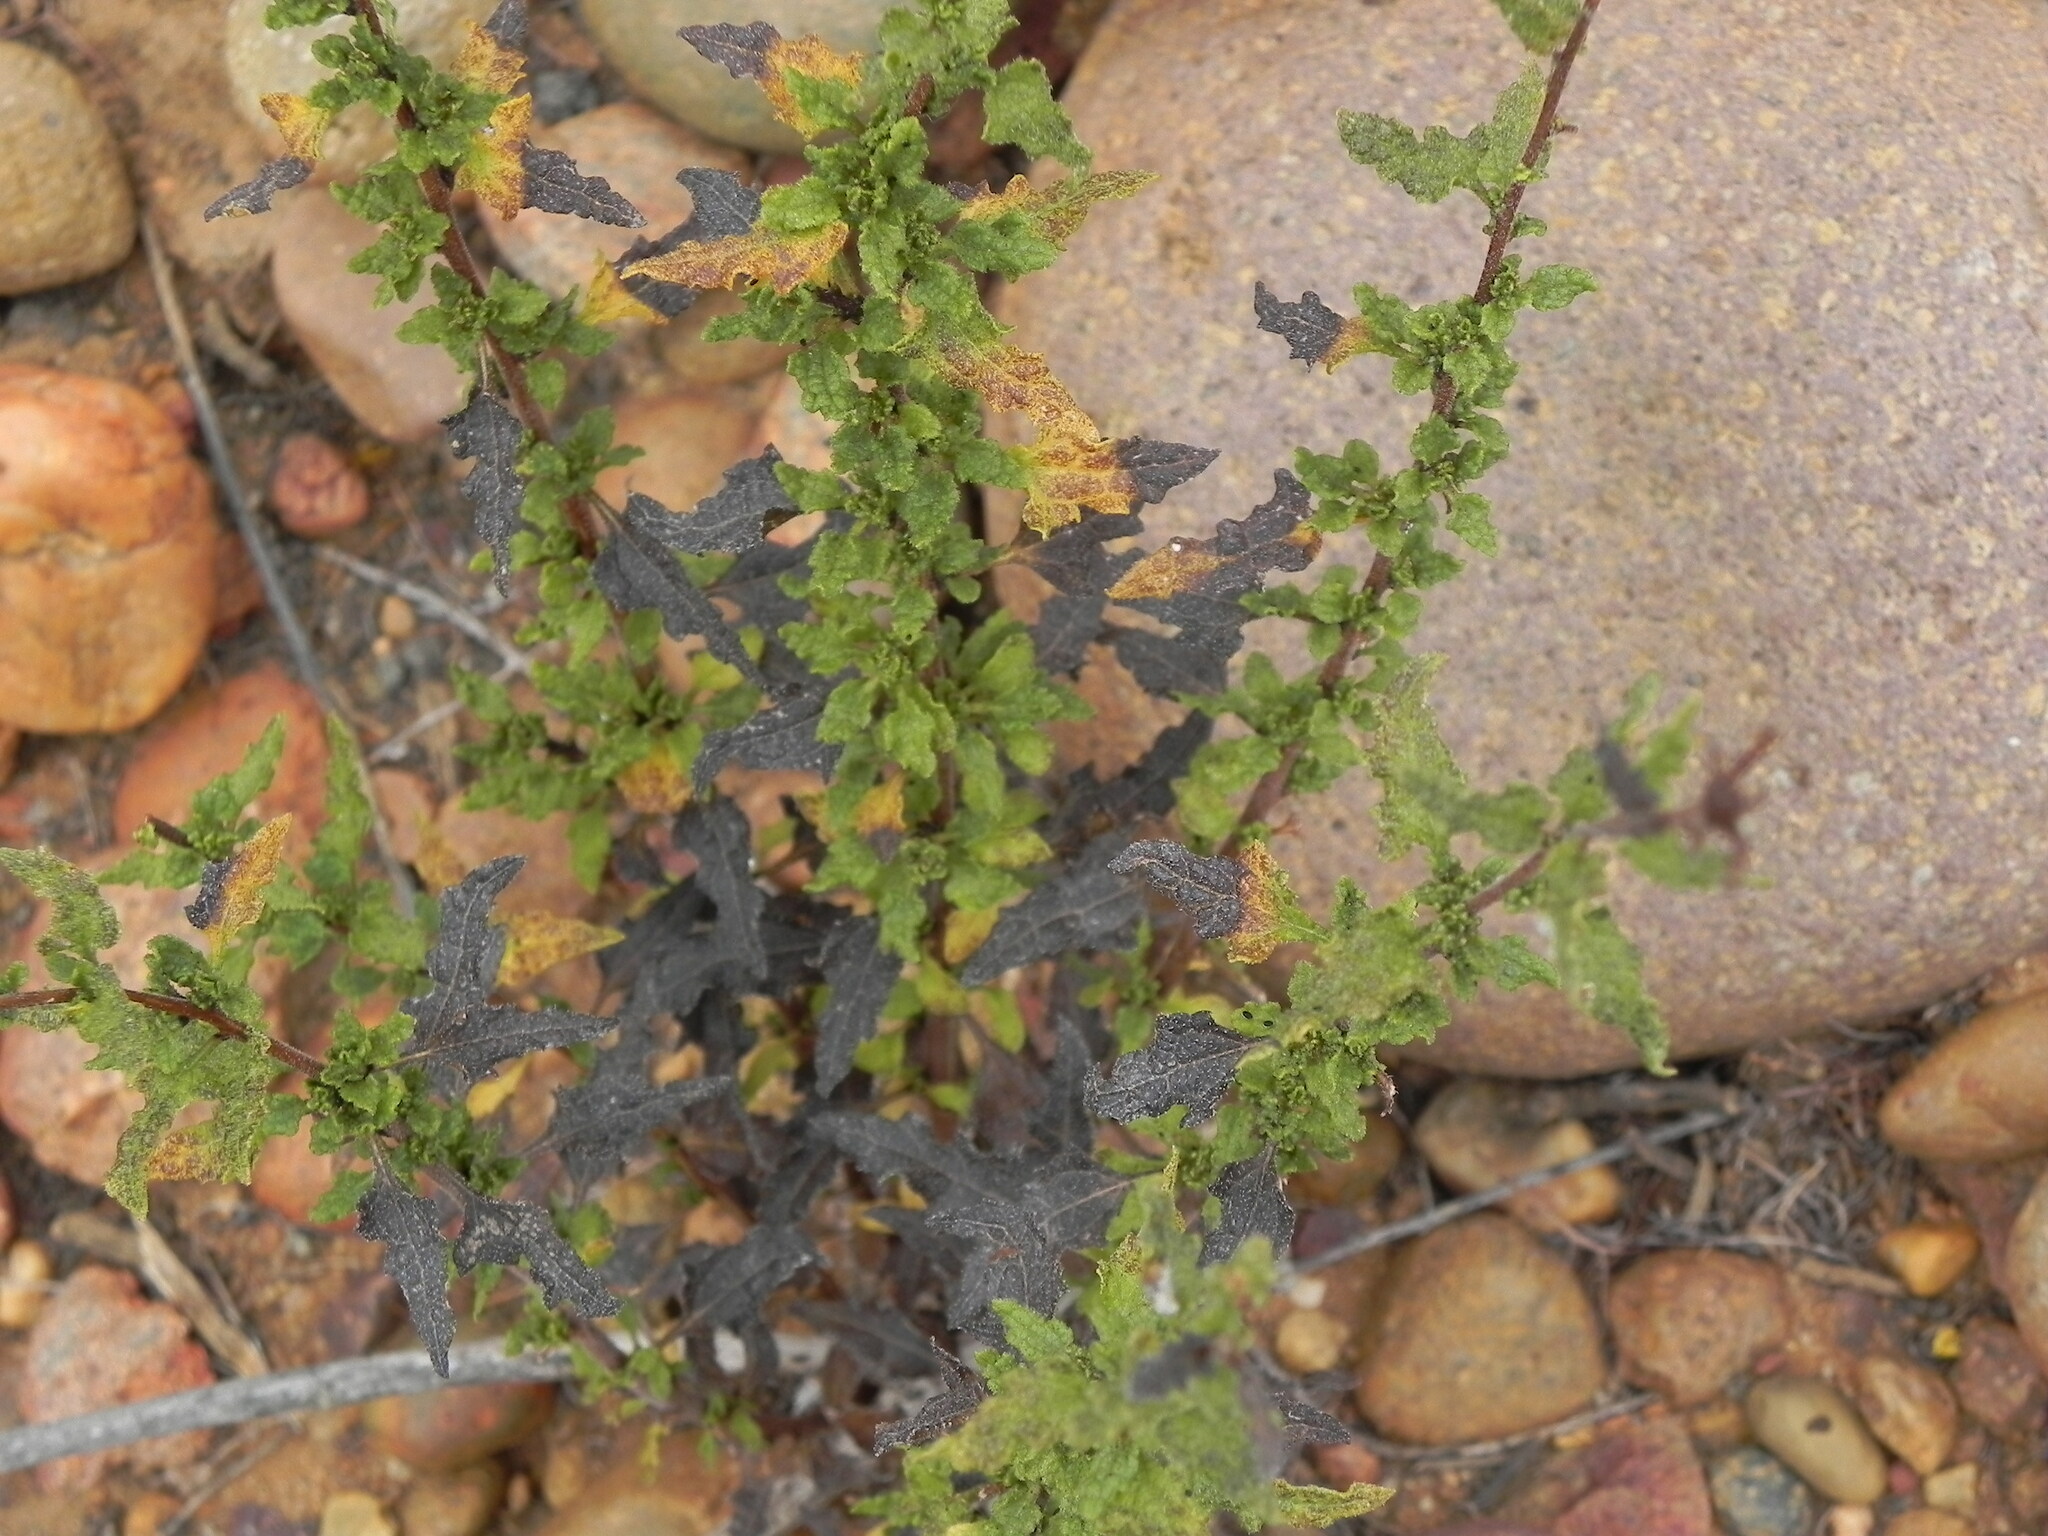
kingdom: Plantae
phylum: Tracheophyta
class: Magnoliopsida
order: Asterales
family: Asteraceae
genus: Bahiopsis
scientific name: Bahiopsis laciniata
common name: San diego county viguiera
